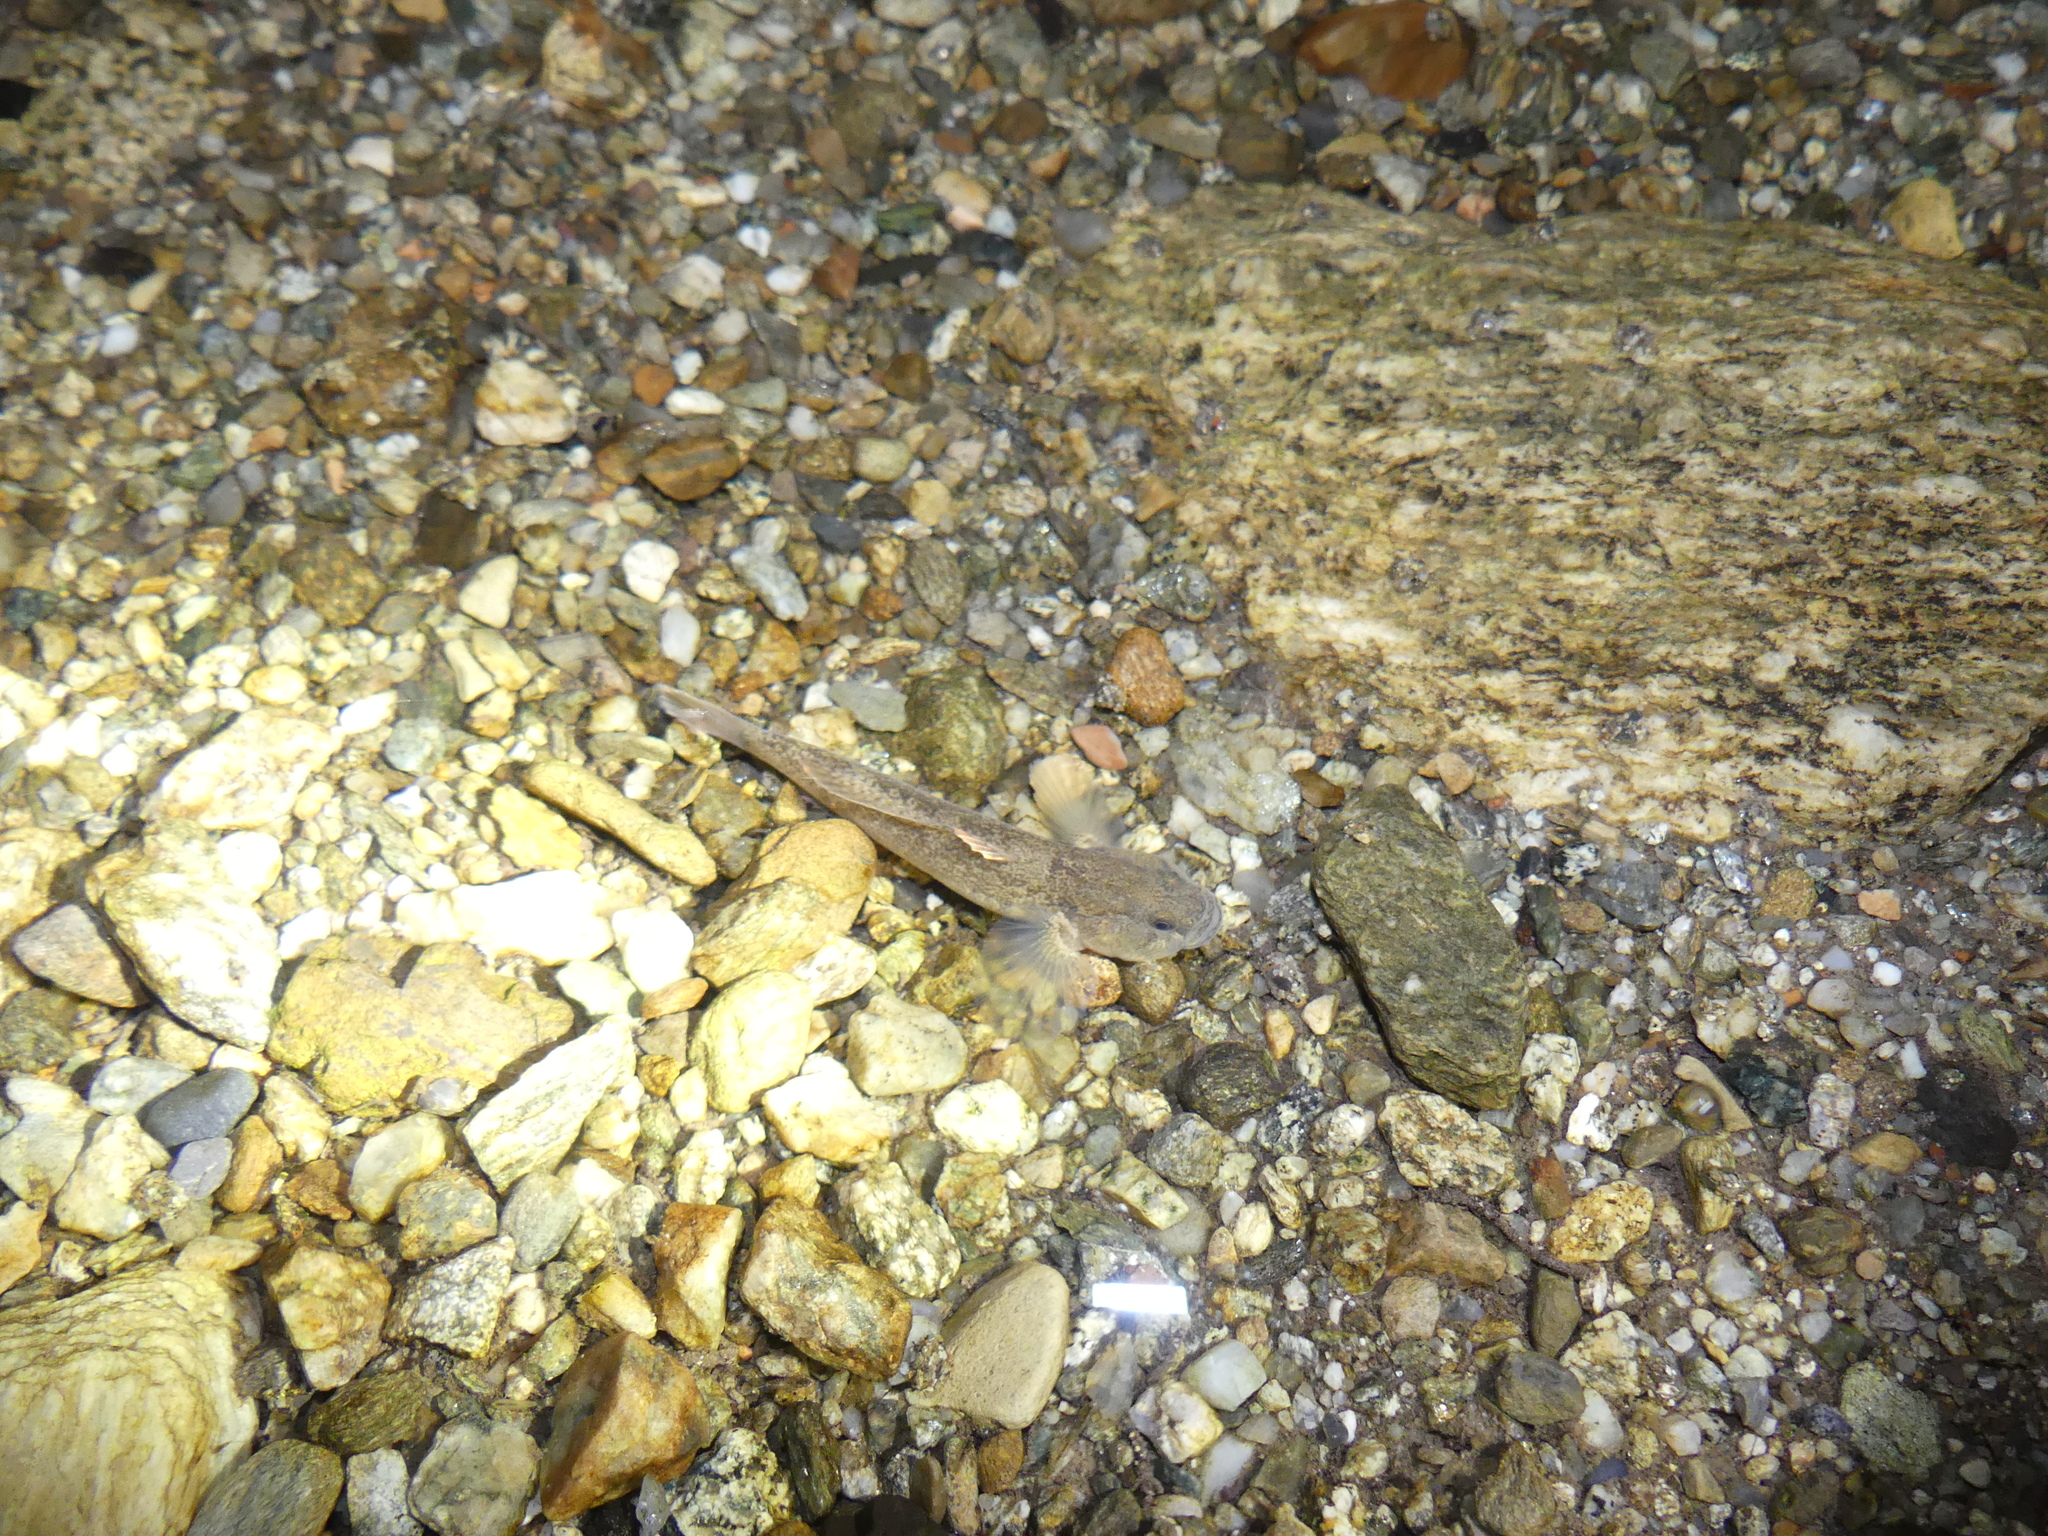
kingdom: Animalia
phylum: Chordata
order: Perciformes
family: Gobiidae
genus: Padogobius
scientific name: Padogobius bonelli
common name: Padanian goby
